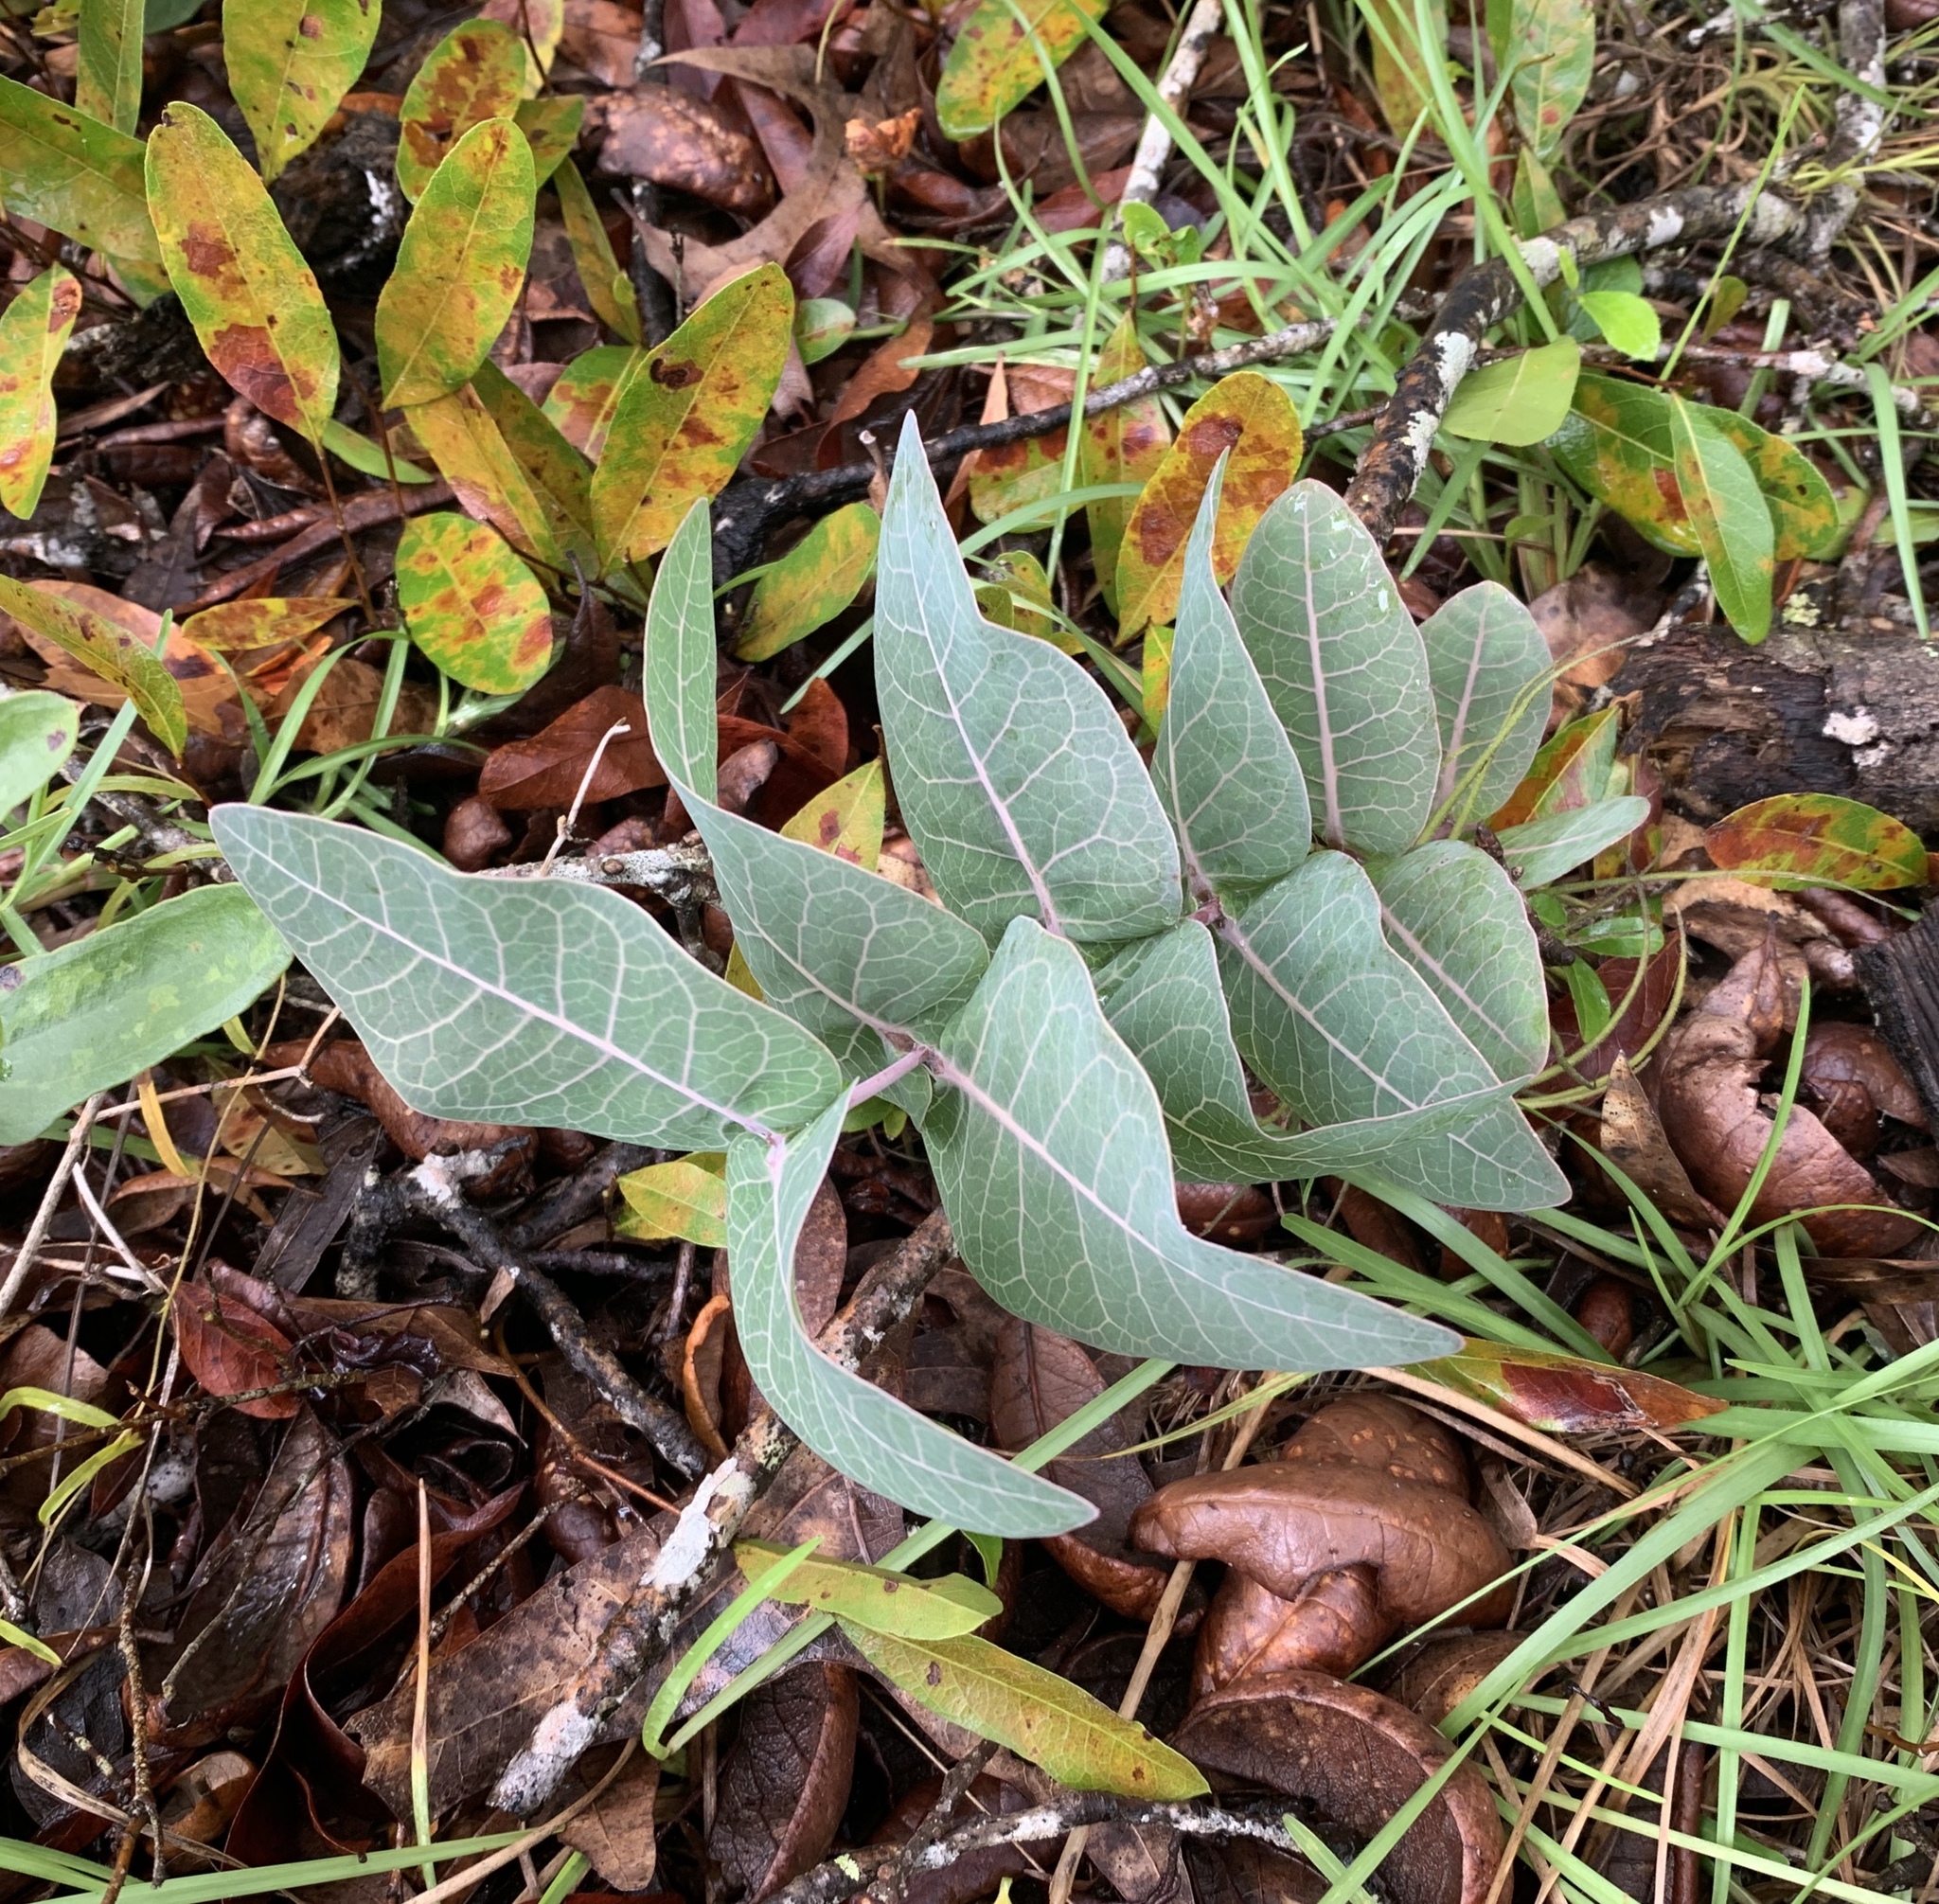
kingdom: Plantae
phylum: Tracheophyta
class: Magnoliopsida
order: Gentianales
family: Apocynaceae
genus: Asclepias
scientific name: Asclepias humistrata
